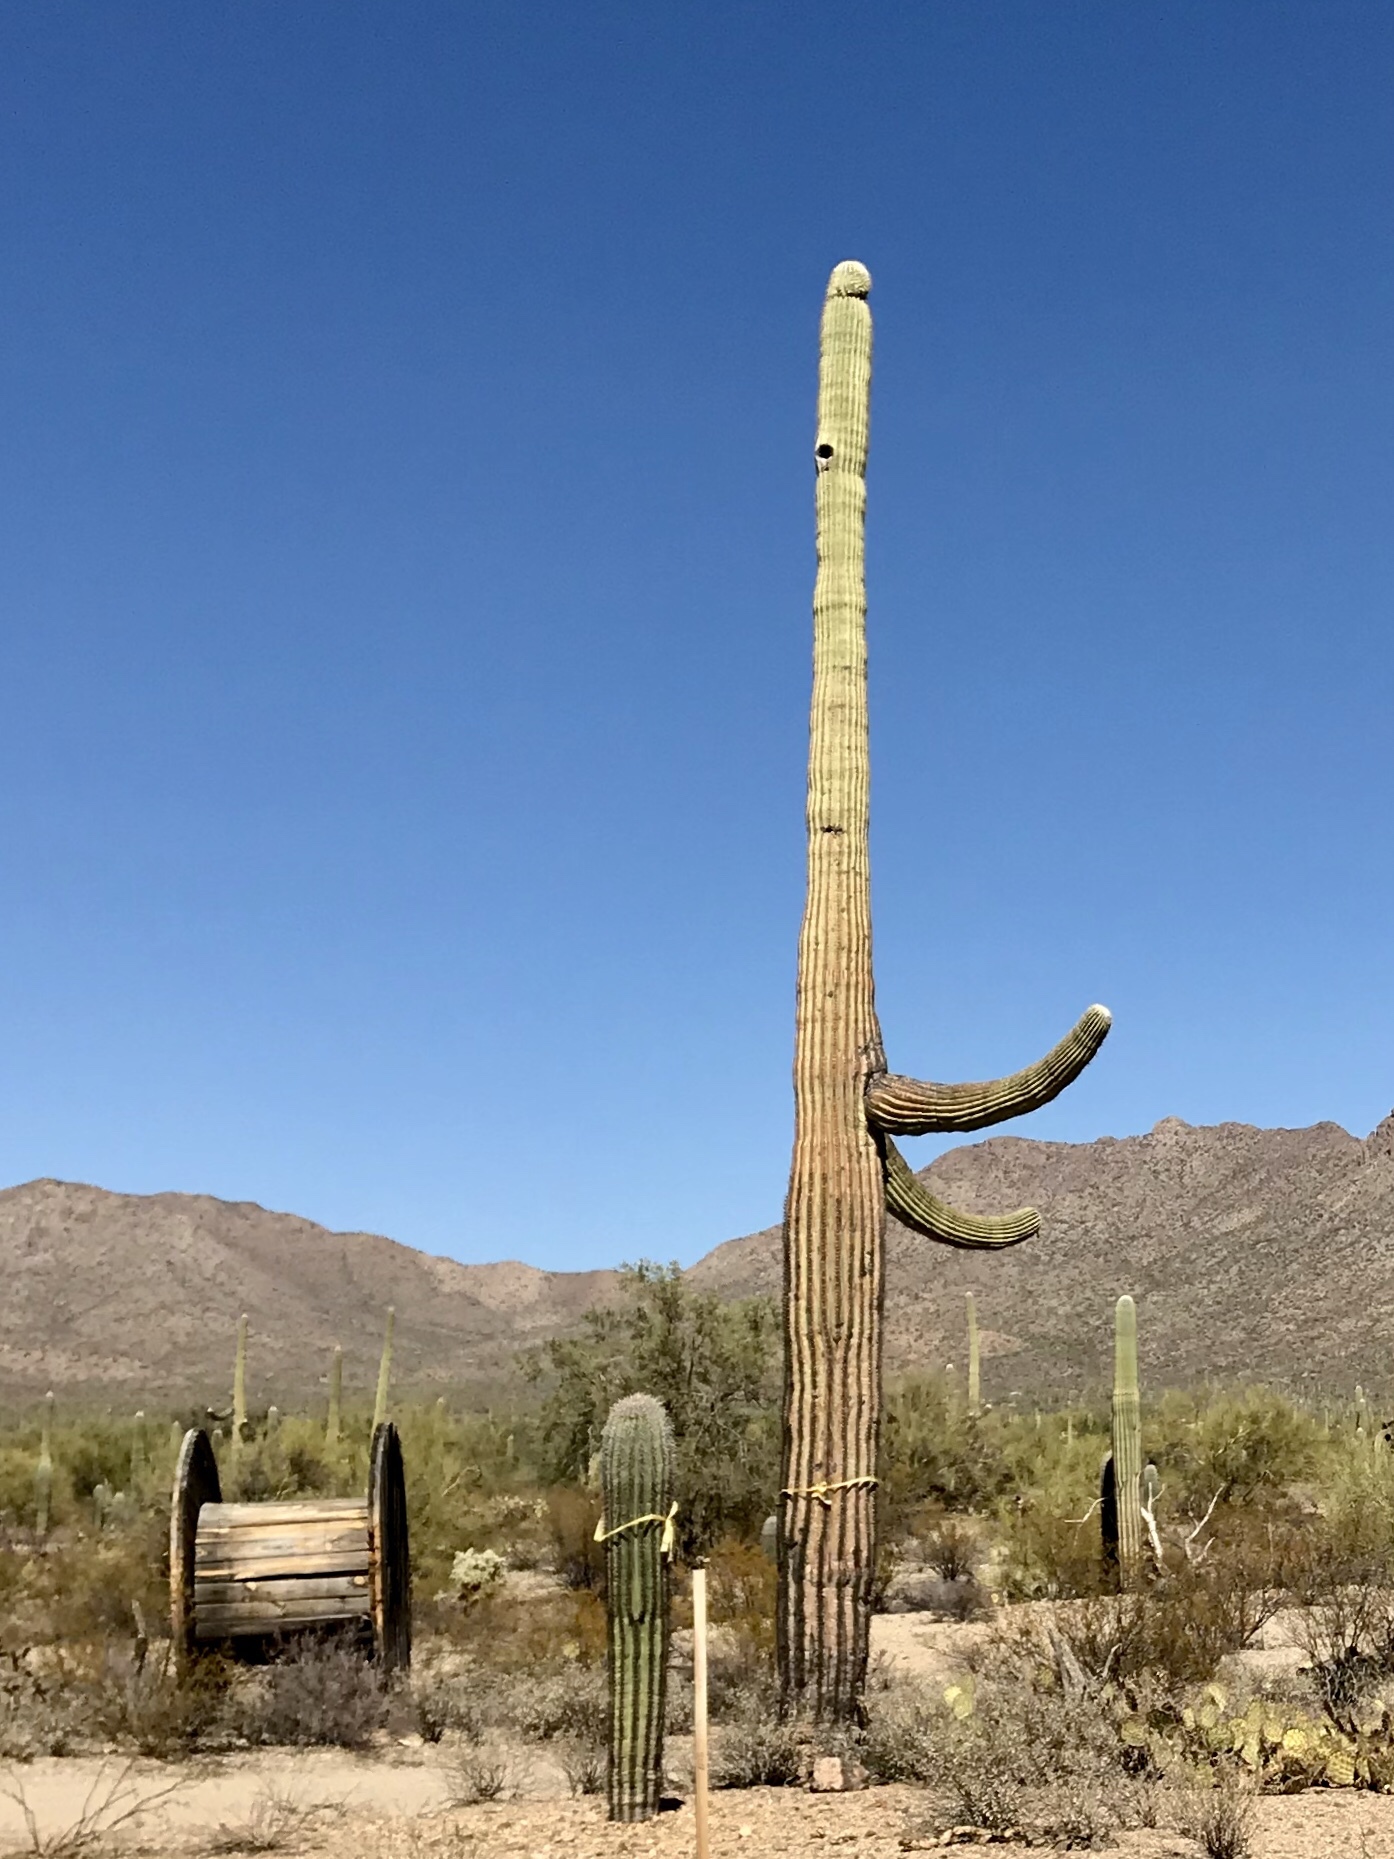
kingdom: Plantae
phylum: Tracheophyta
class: Magnoliopsida
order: Caryophyllales
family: Cactaceae
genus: Carnegiea
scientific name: Carnegiea gigantea
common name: Saguaro
